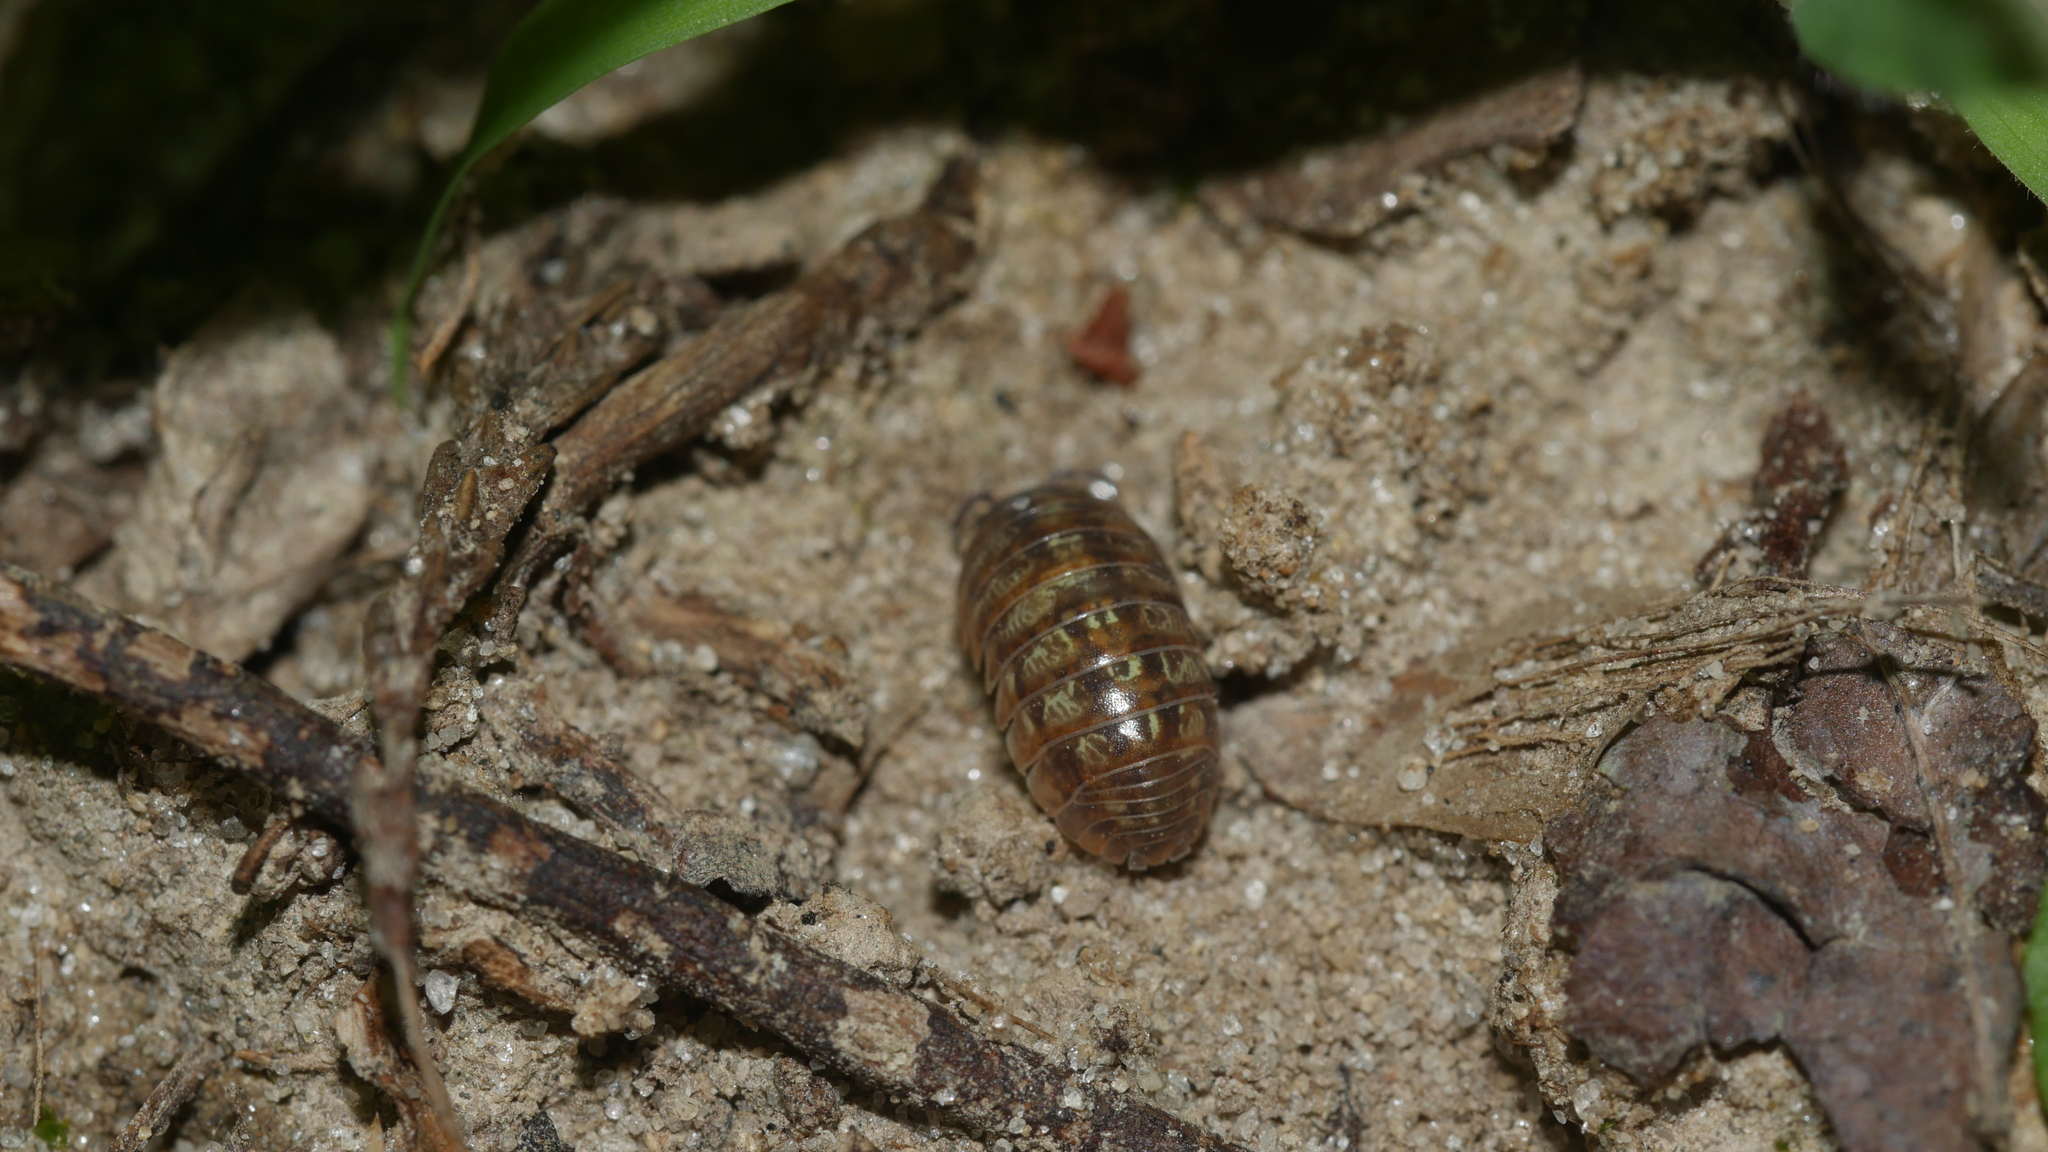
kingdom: Animalia
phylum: Arthropoda
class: Malacostraca
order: Isopoda
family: Armadillidiidae
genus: Armadillidium
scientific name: Armadillidium vulgare
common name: Common pill woodlouse
